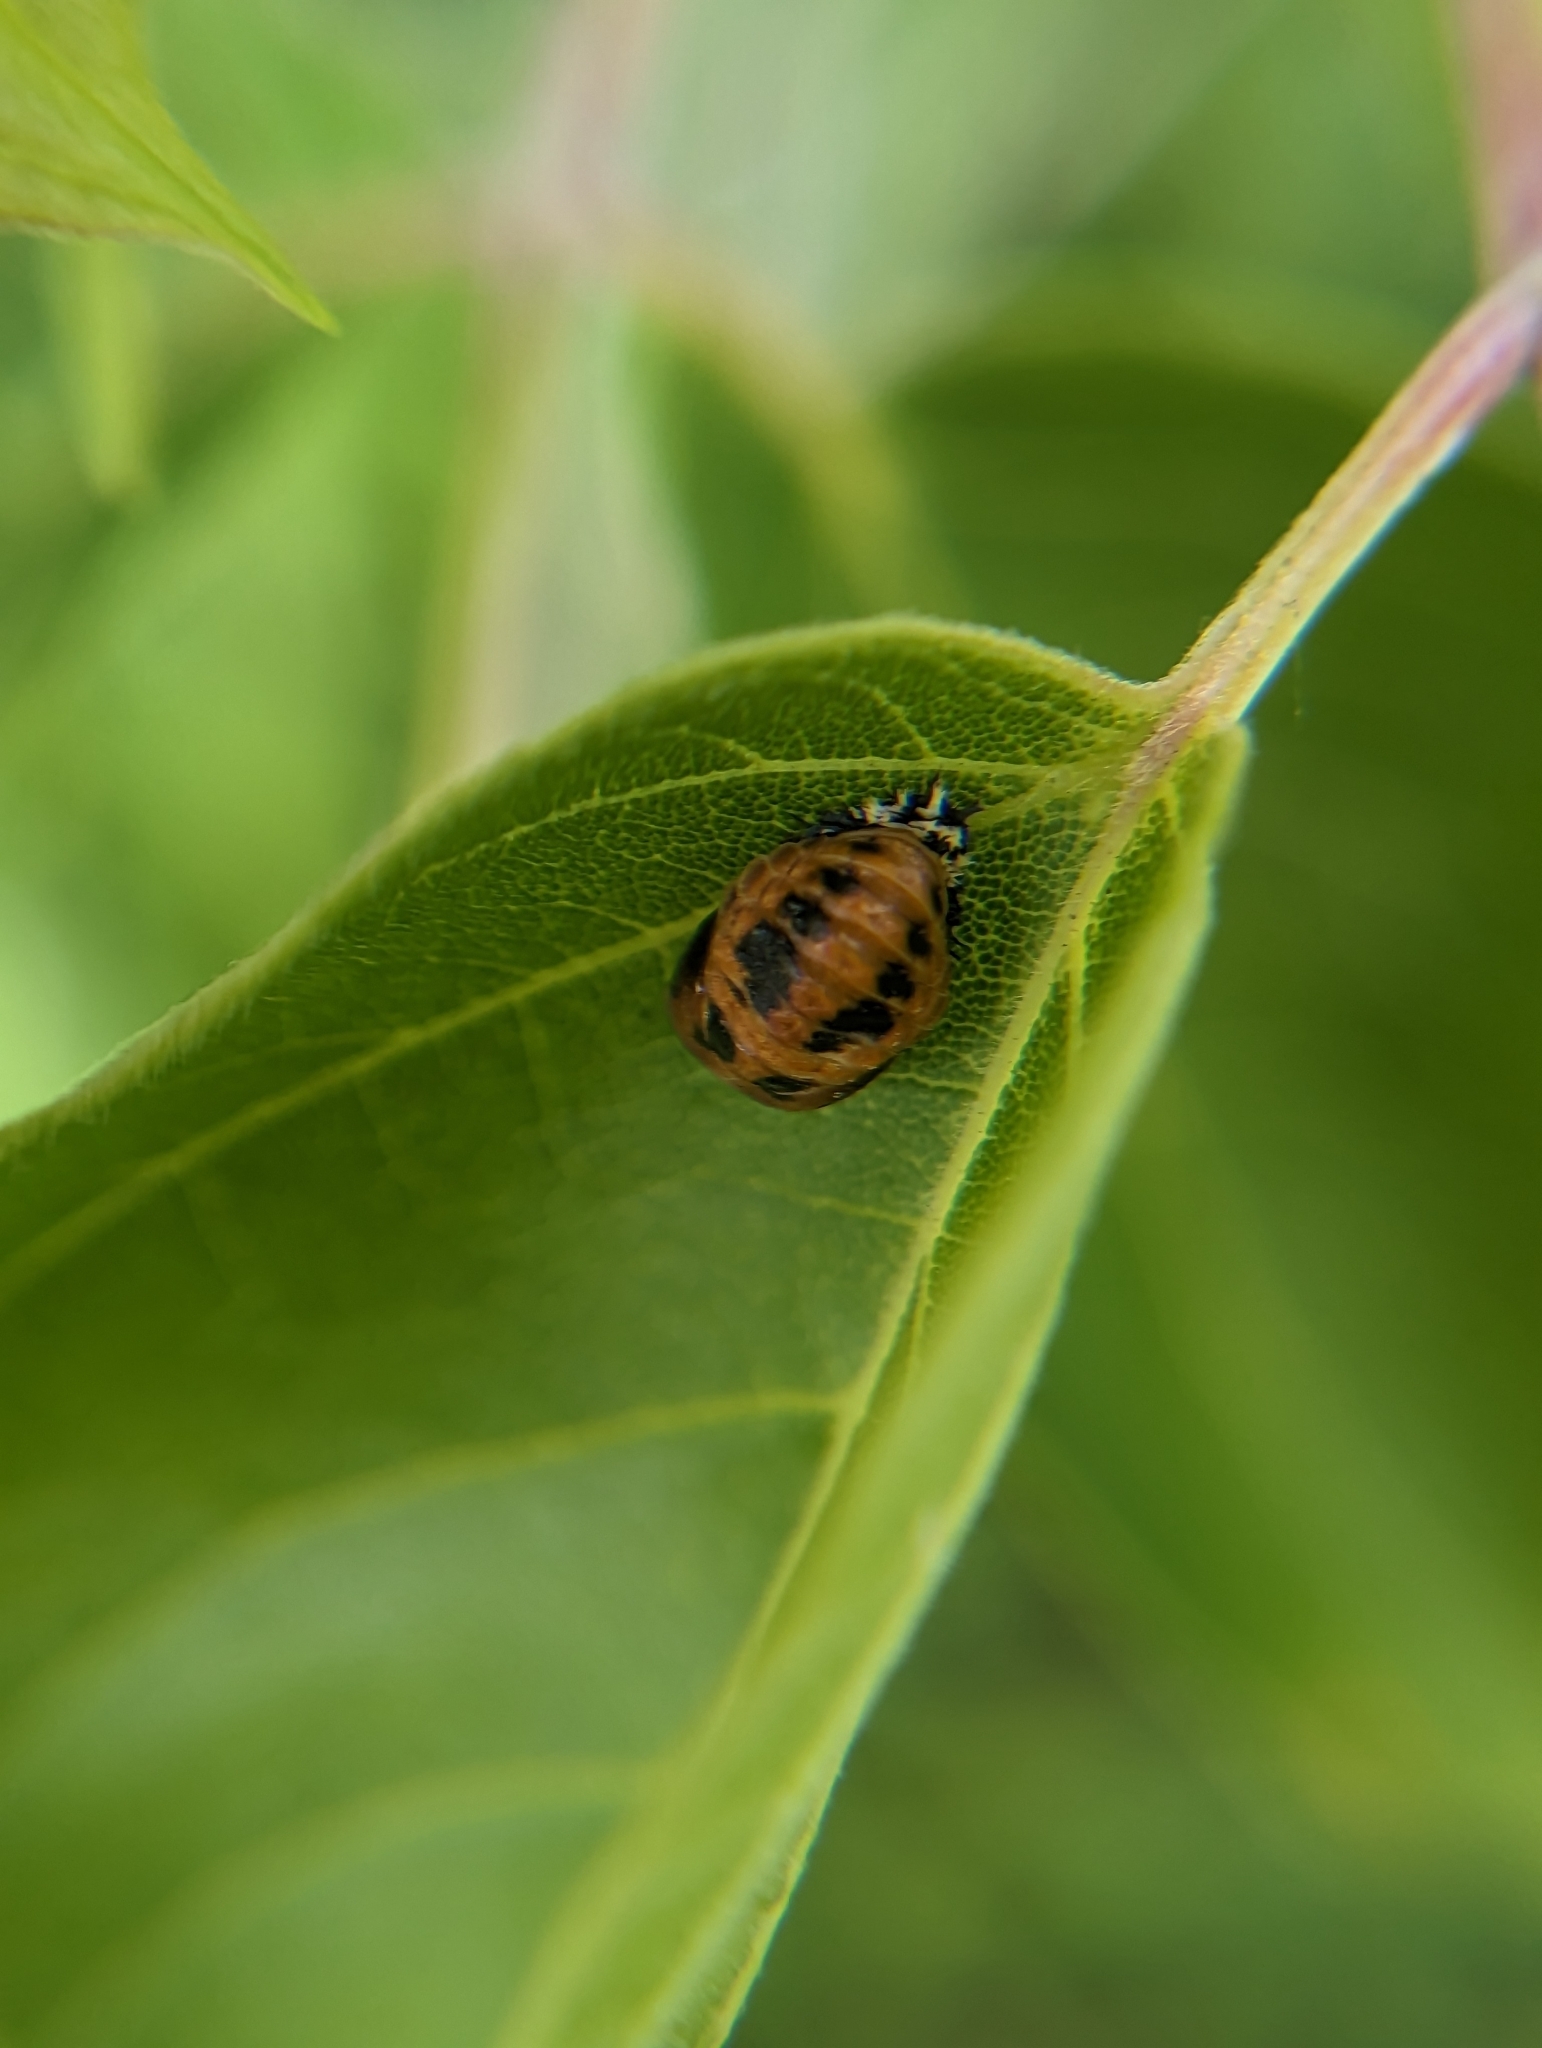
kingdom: Animalia
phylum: Arthropoda
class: Insecta
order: Coleoptera
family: Coccinellidae
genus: Harmonia
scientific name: Harmonia axyridis
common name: Harlequin ladybird
